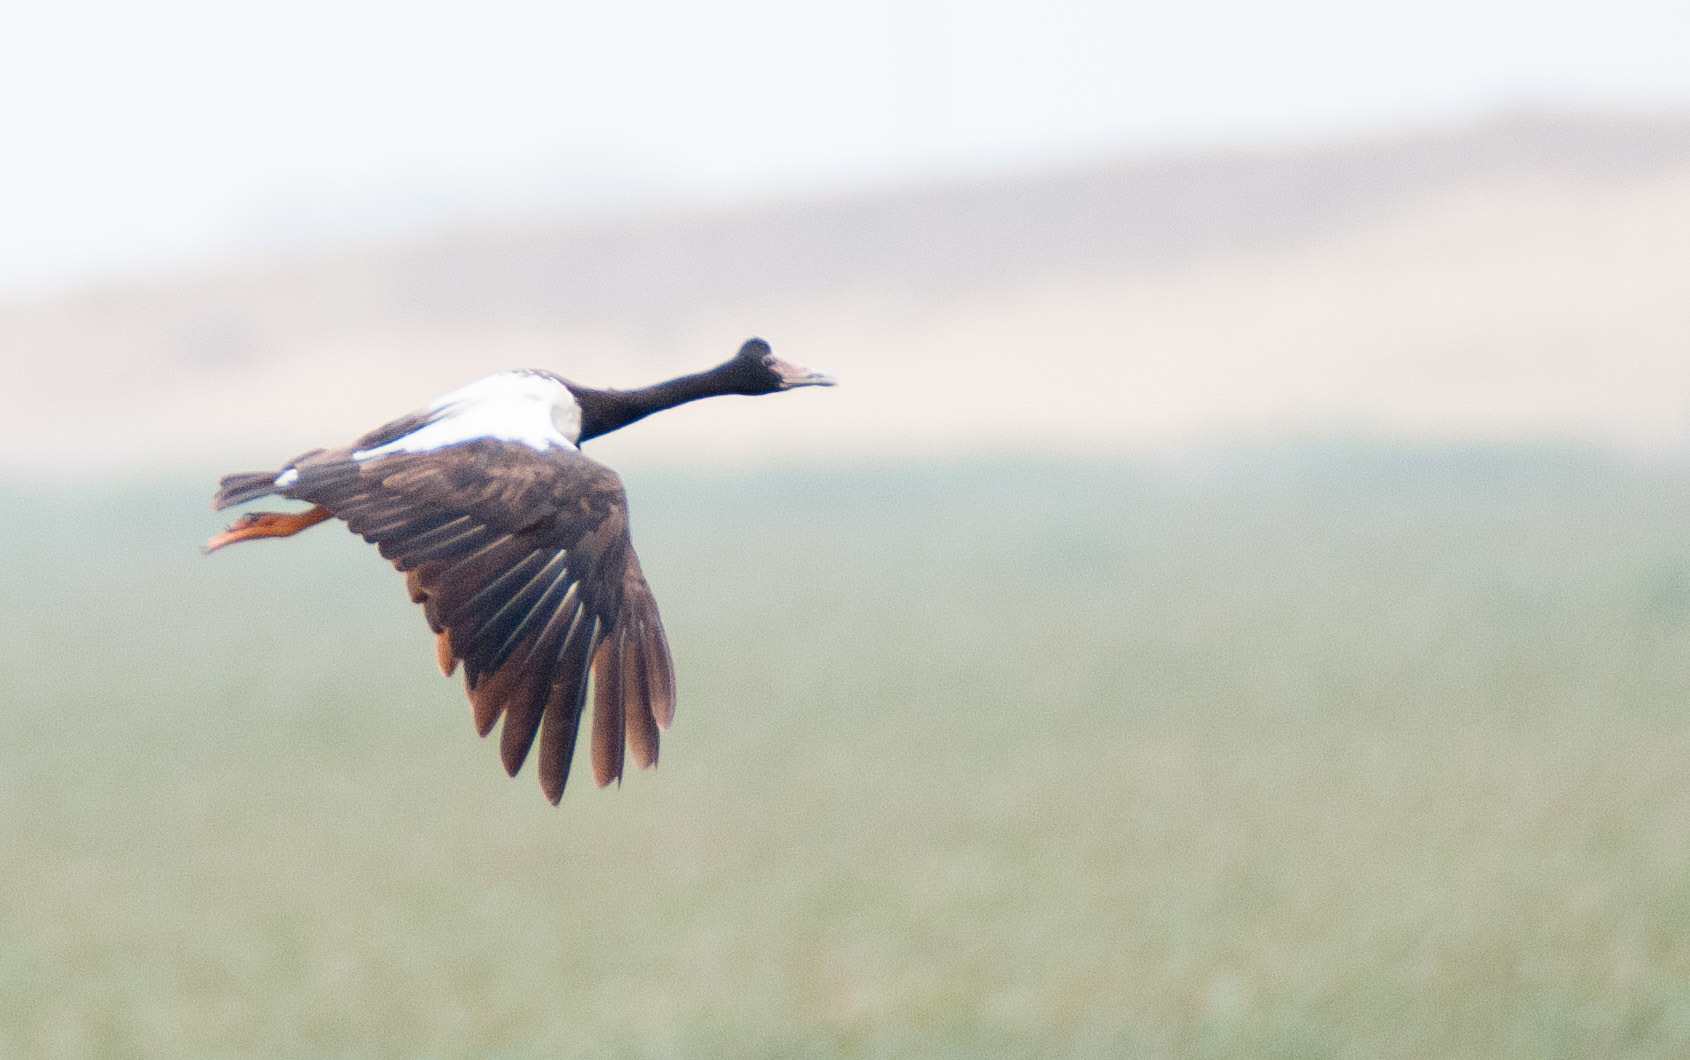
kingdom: Animalia
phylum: Chordata
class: Aves
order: Anseriformes
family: Anseranatidae
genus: Anseranas
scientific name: Anseranas semipalmata
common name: Magpie goose
